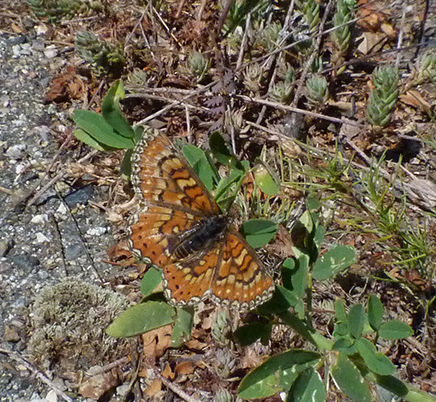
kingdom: Animalia
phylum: Arthropoda
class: Insecta
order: Lepidoptera
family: Nymphalidae
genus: Euphydryas
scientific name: Euphydryas desfontainii
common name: Spanish fritillary
